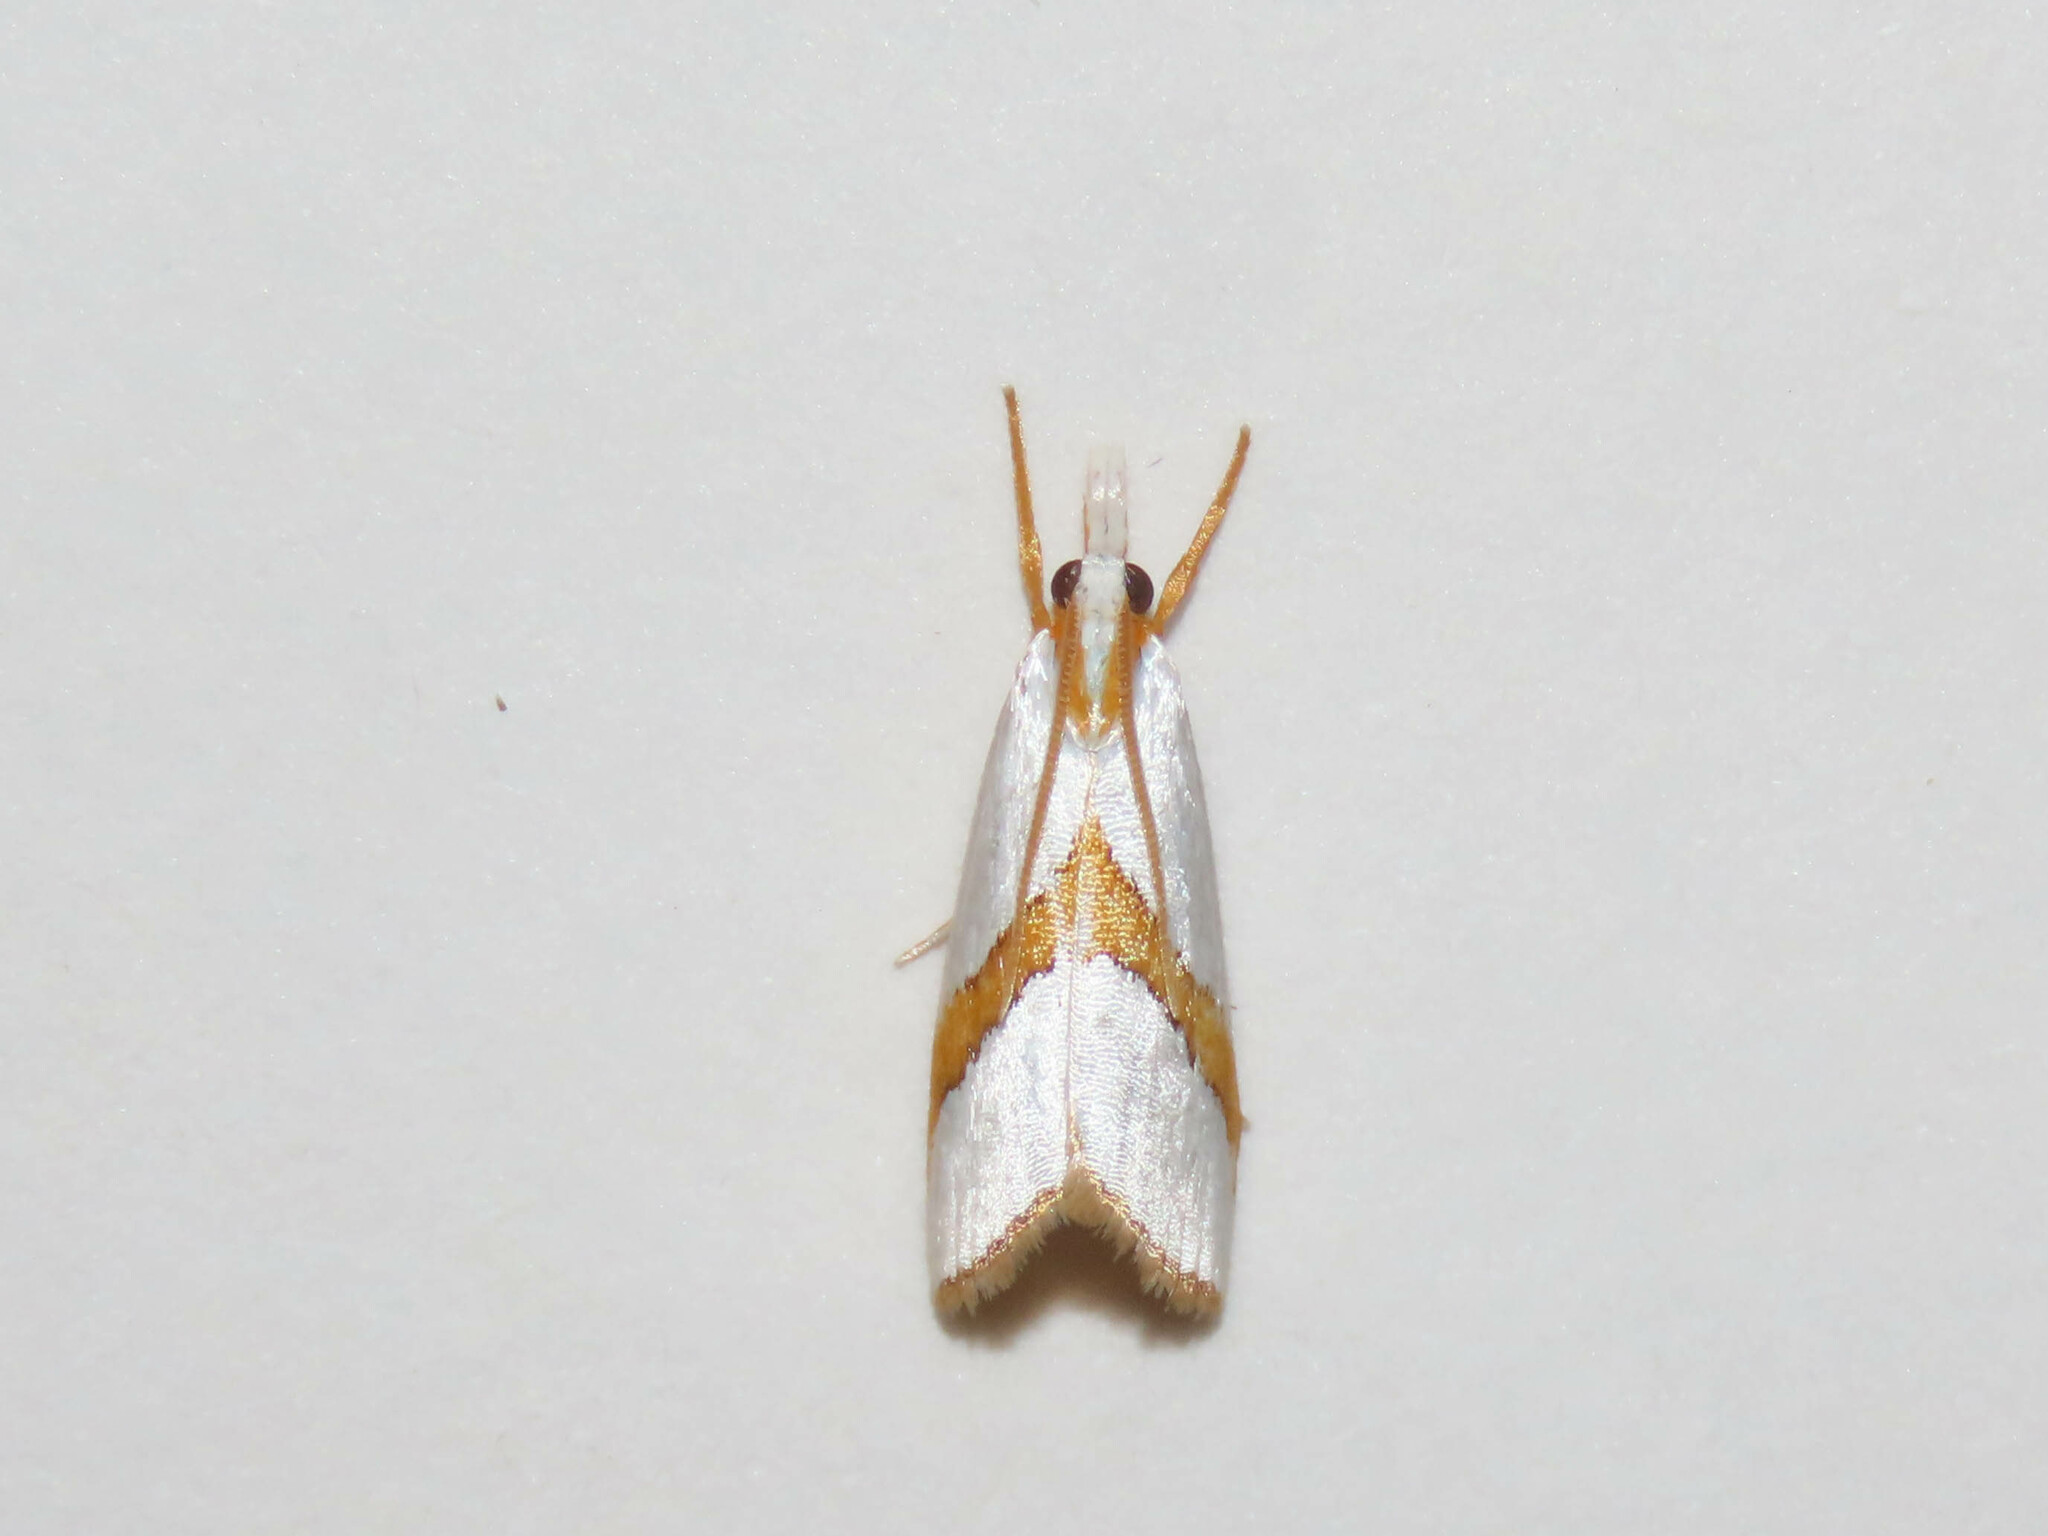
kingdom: Animalia
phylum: Arthropoda
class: Insecta
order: Lepidoptera
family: Crambidae
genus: Vaxi
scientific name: Vaxi critica
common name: Straight-lined vaxi moth
